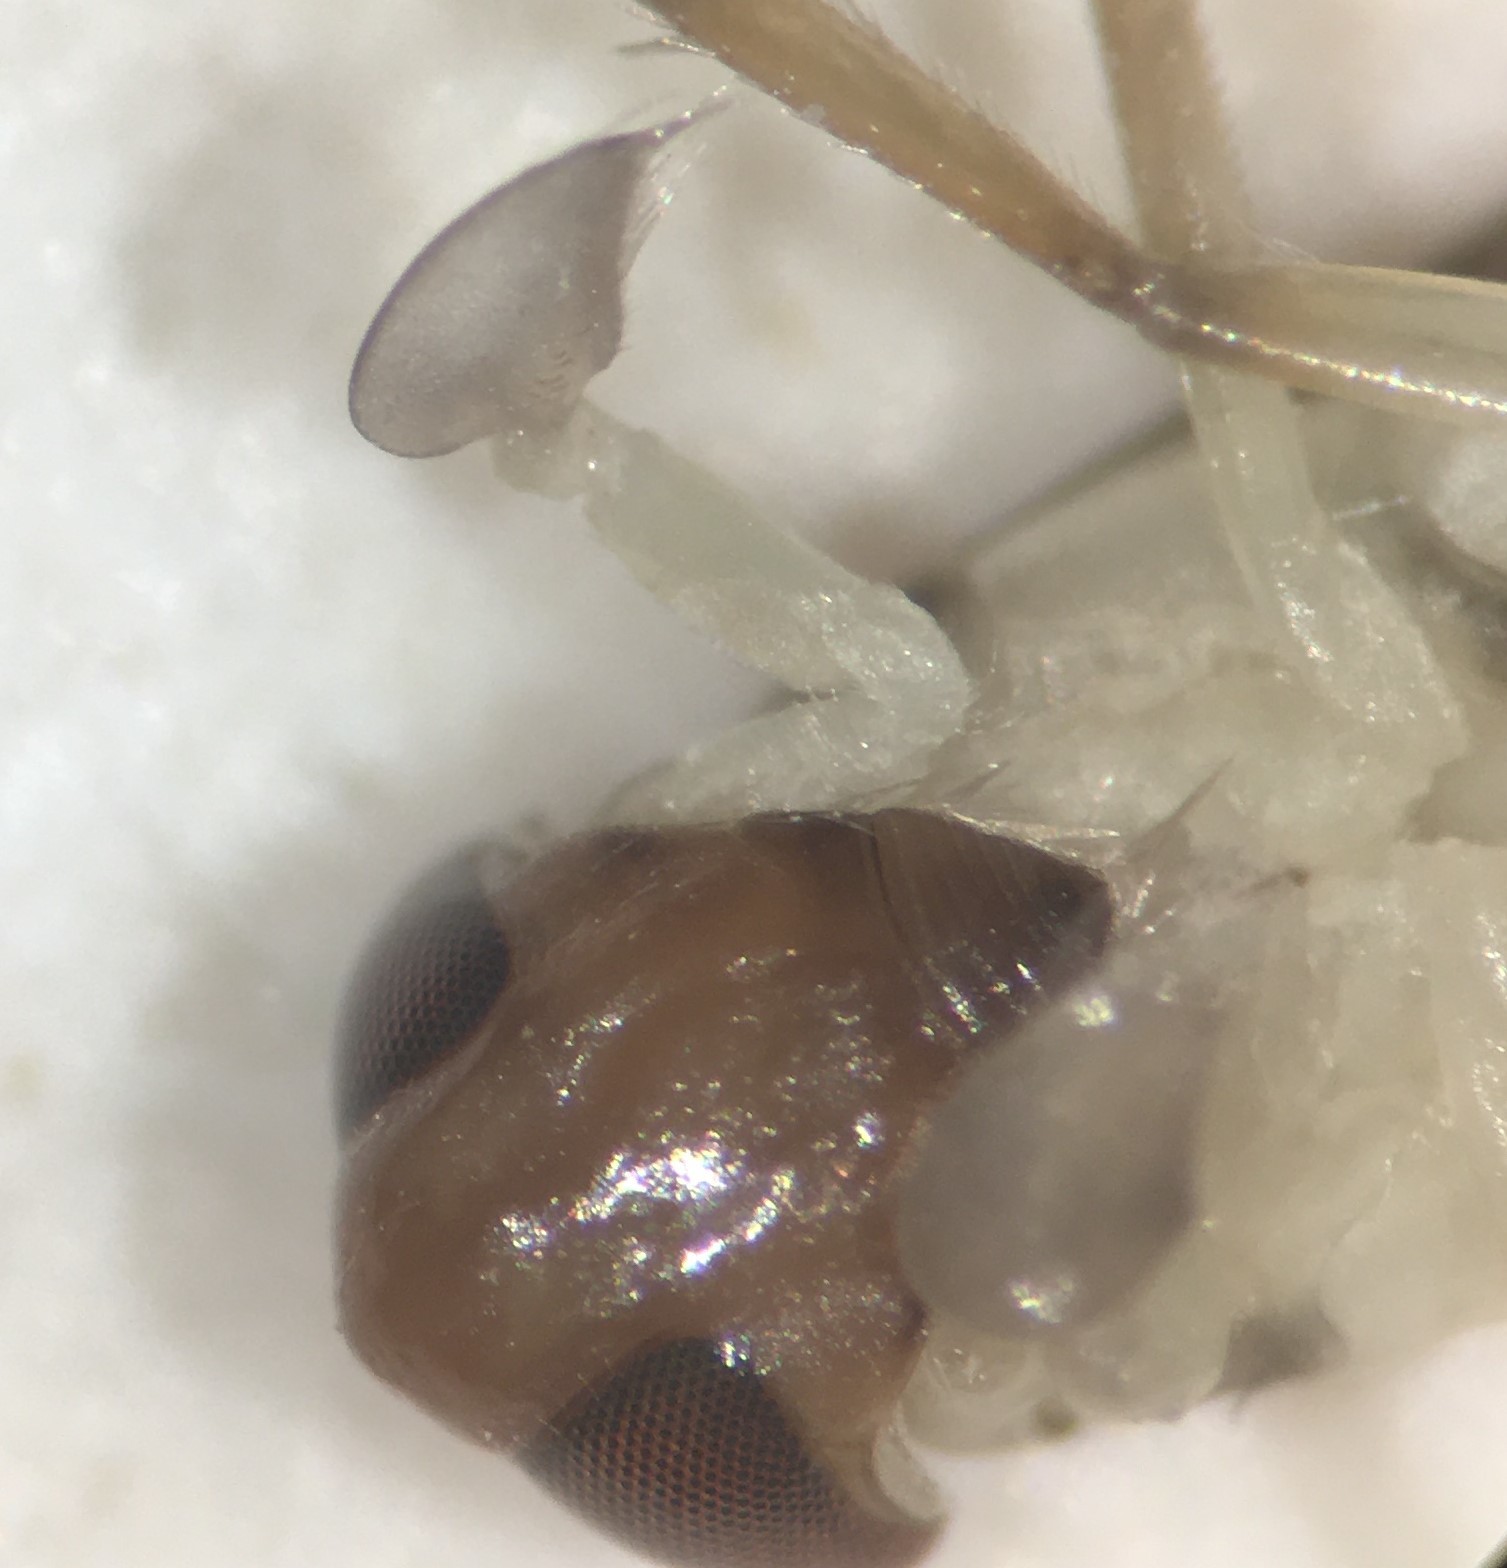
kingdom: Animalia
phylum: Arthropoda
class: Insecta
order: Hemiptera
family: Corixidae
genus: Palmacorixa
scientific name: Palmacorixa gillettei
